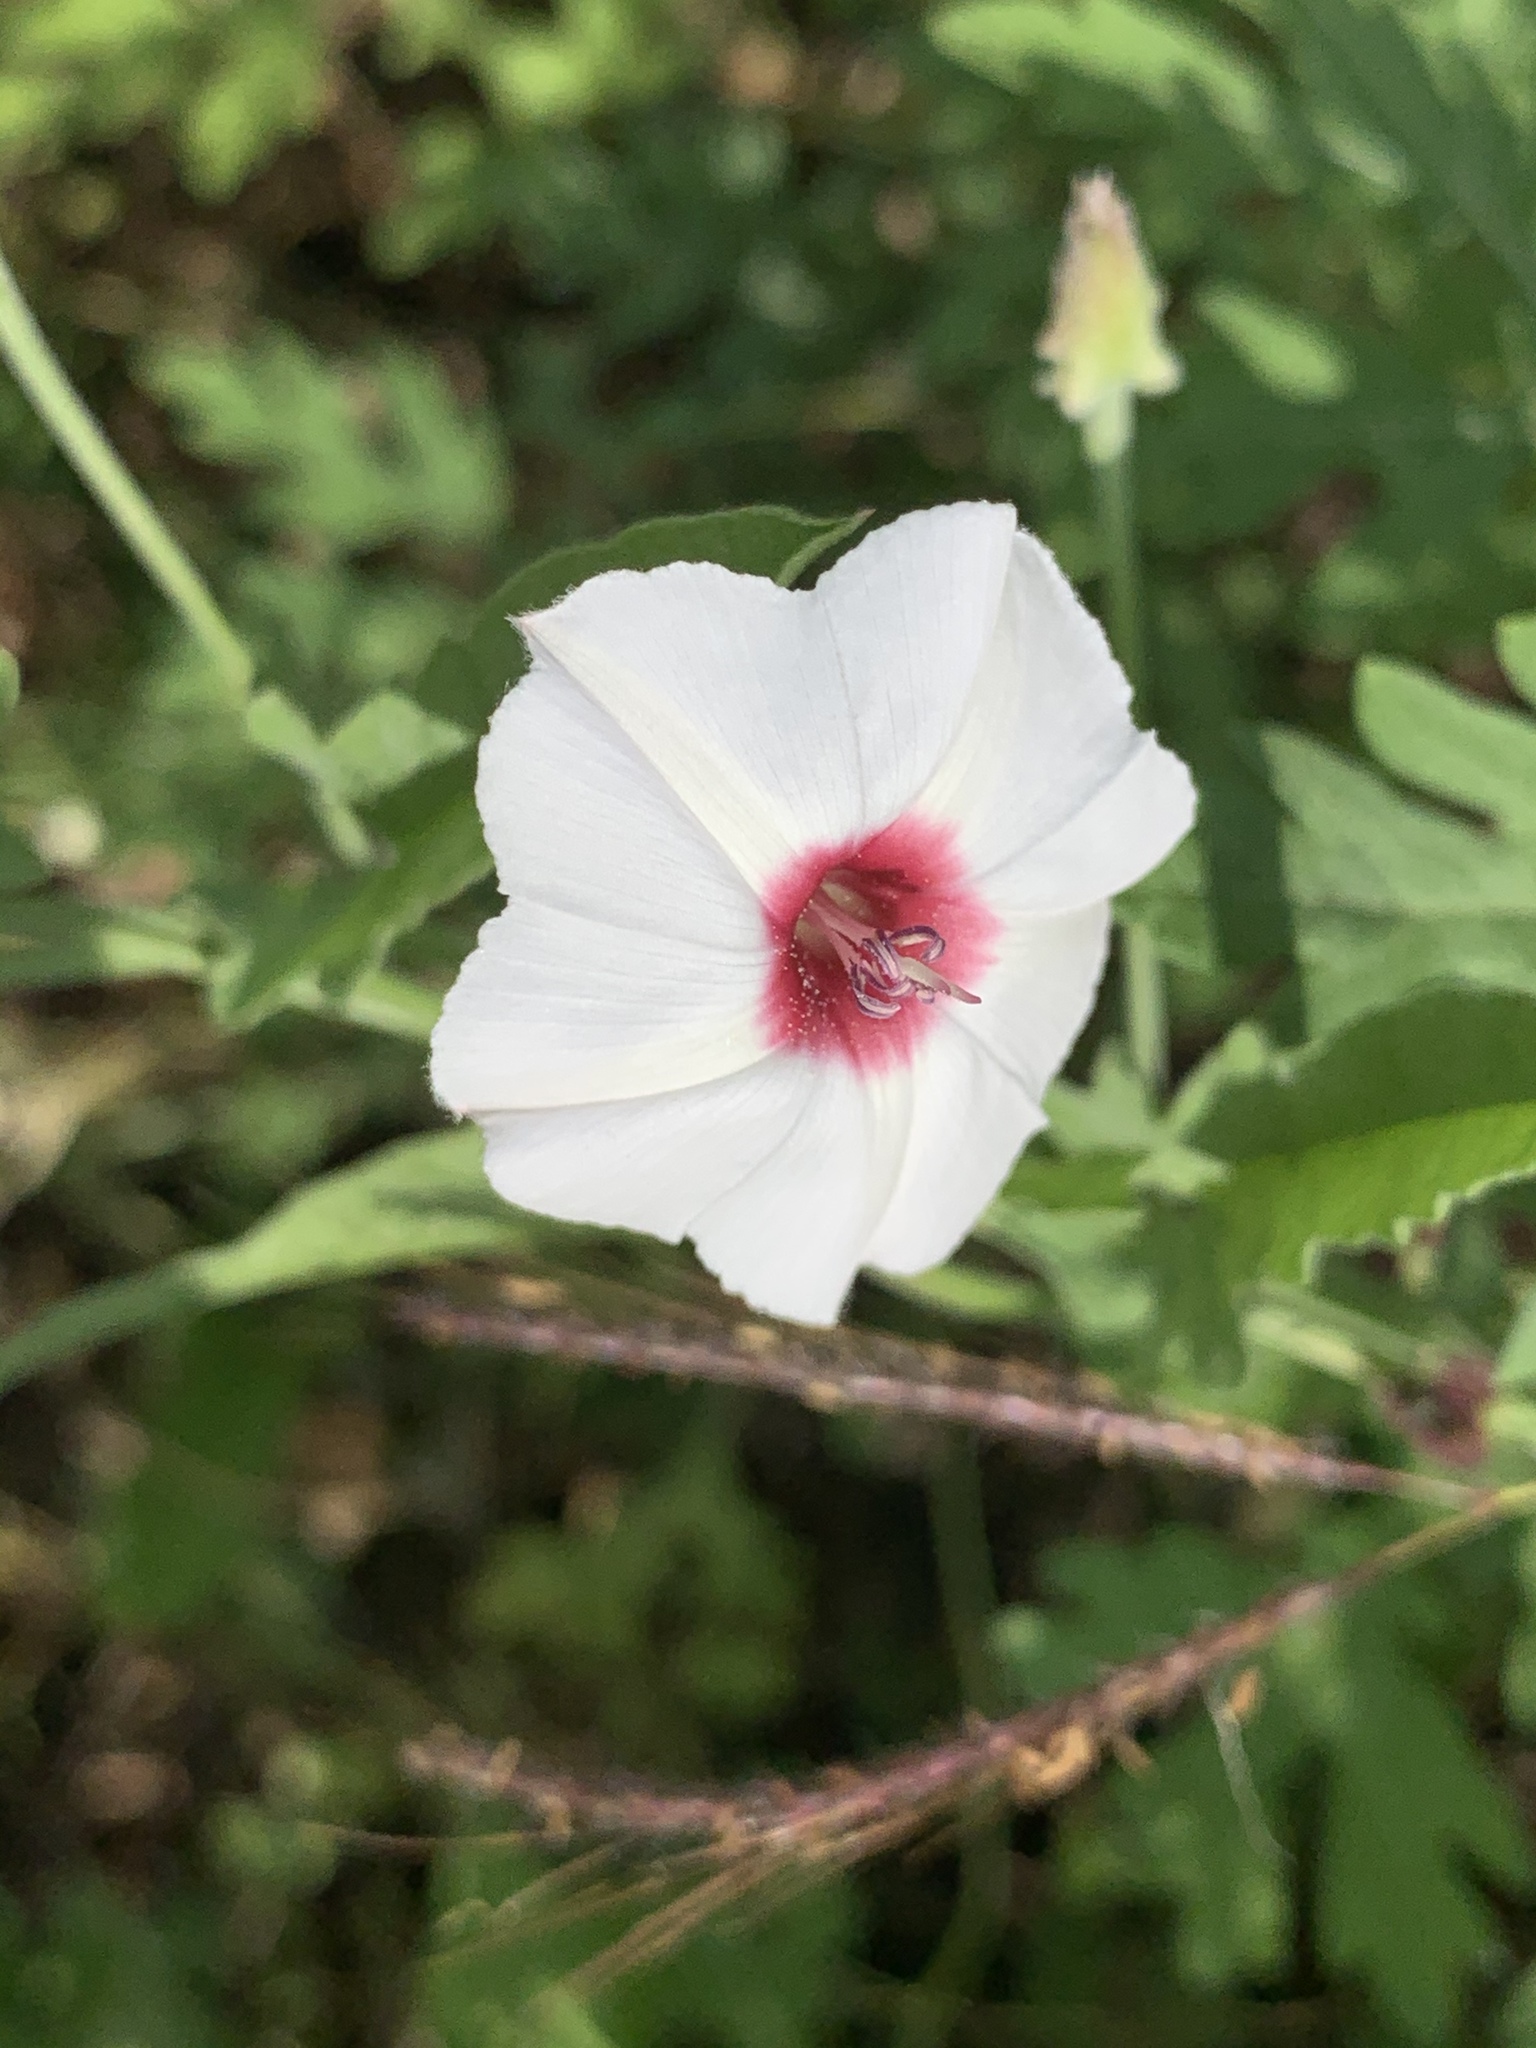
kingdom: Plantae
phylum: Tracheophyta
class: Magnoliopsida
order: Solanales
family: Convolvulaceae
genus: Convolvulus
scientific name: Convolvulus equitans
